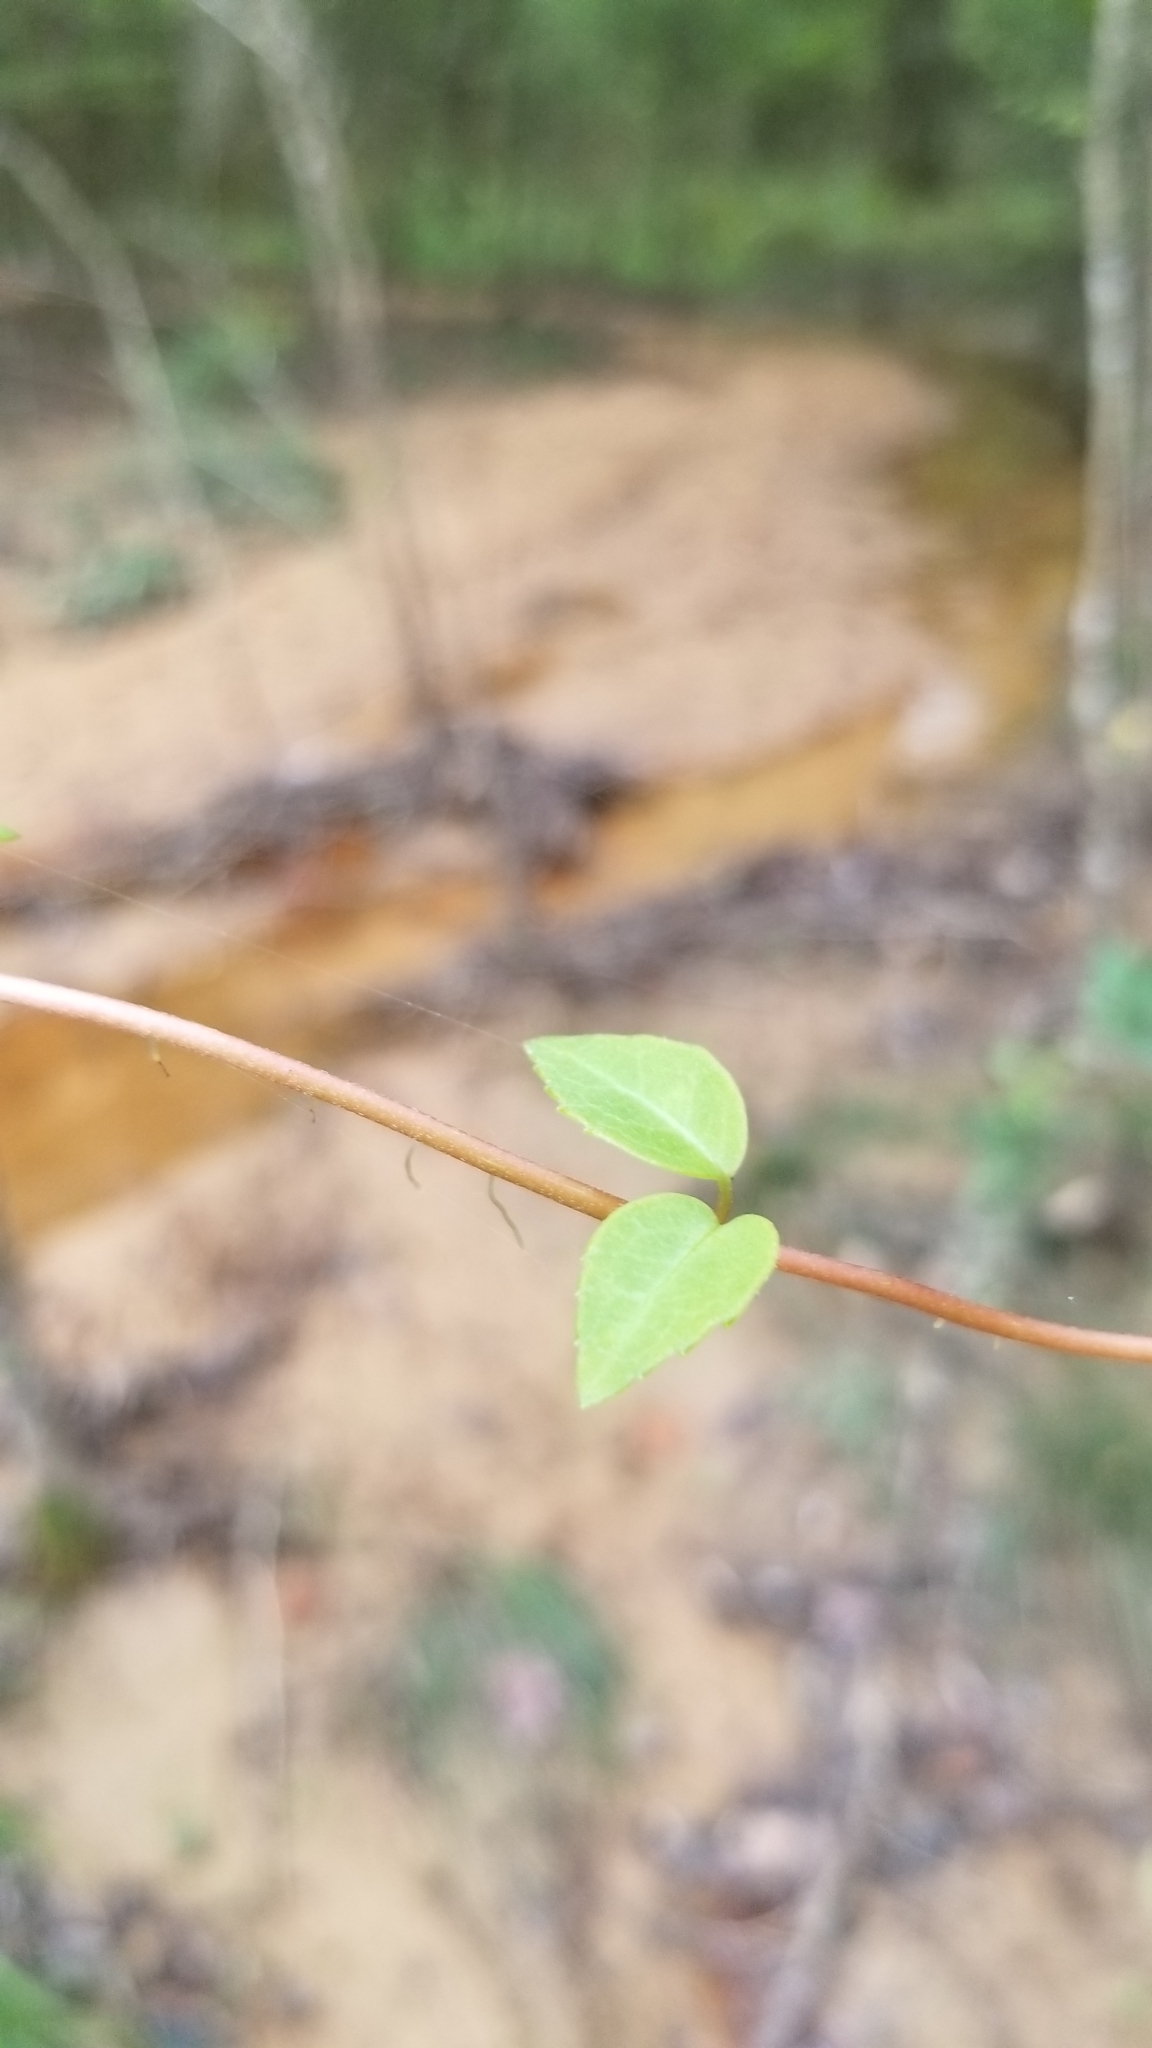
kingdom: Plantae
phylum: Tracheophyta
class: Magnoliopsida
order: Cornales
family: Hydrangeaceae
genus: Hydrangea
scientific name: Hydrangea barbara
